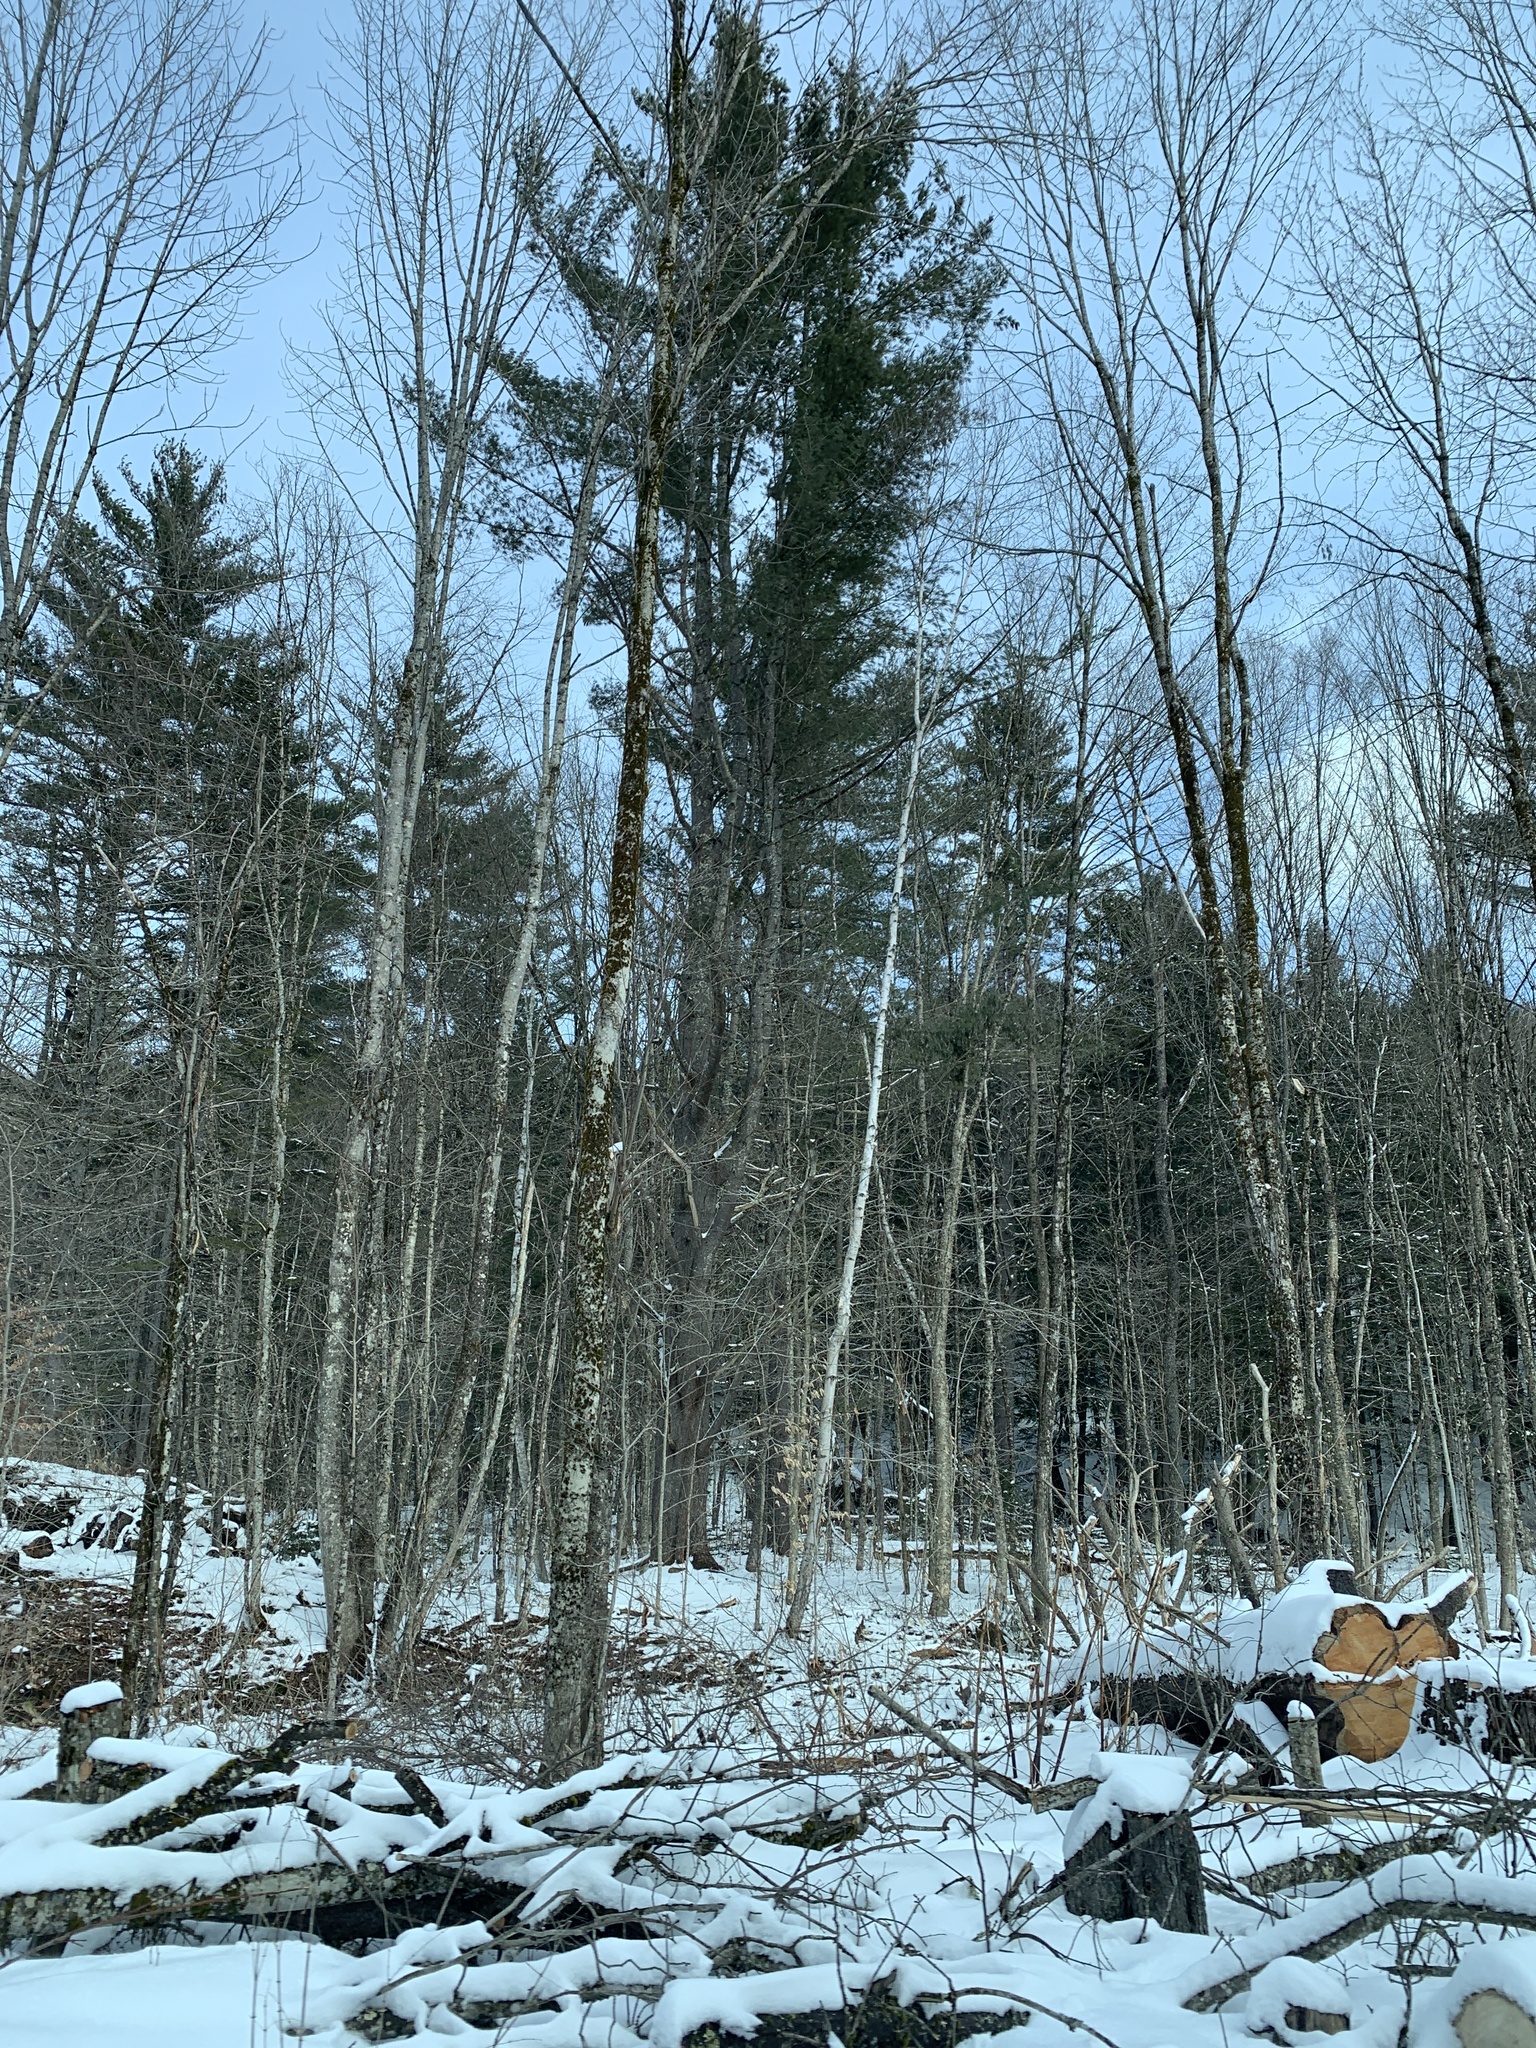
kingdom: Plantae
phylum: Tracheophyta
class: Pinopsida
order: Pinales
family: Pinaceae
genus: Pinus
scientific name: Pinus strobus
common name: Weymouth pine
